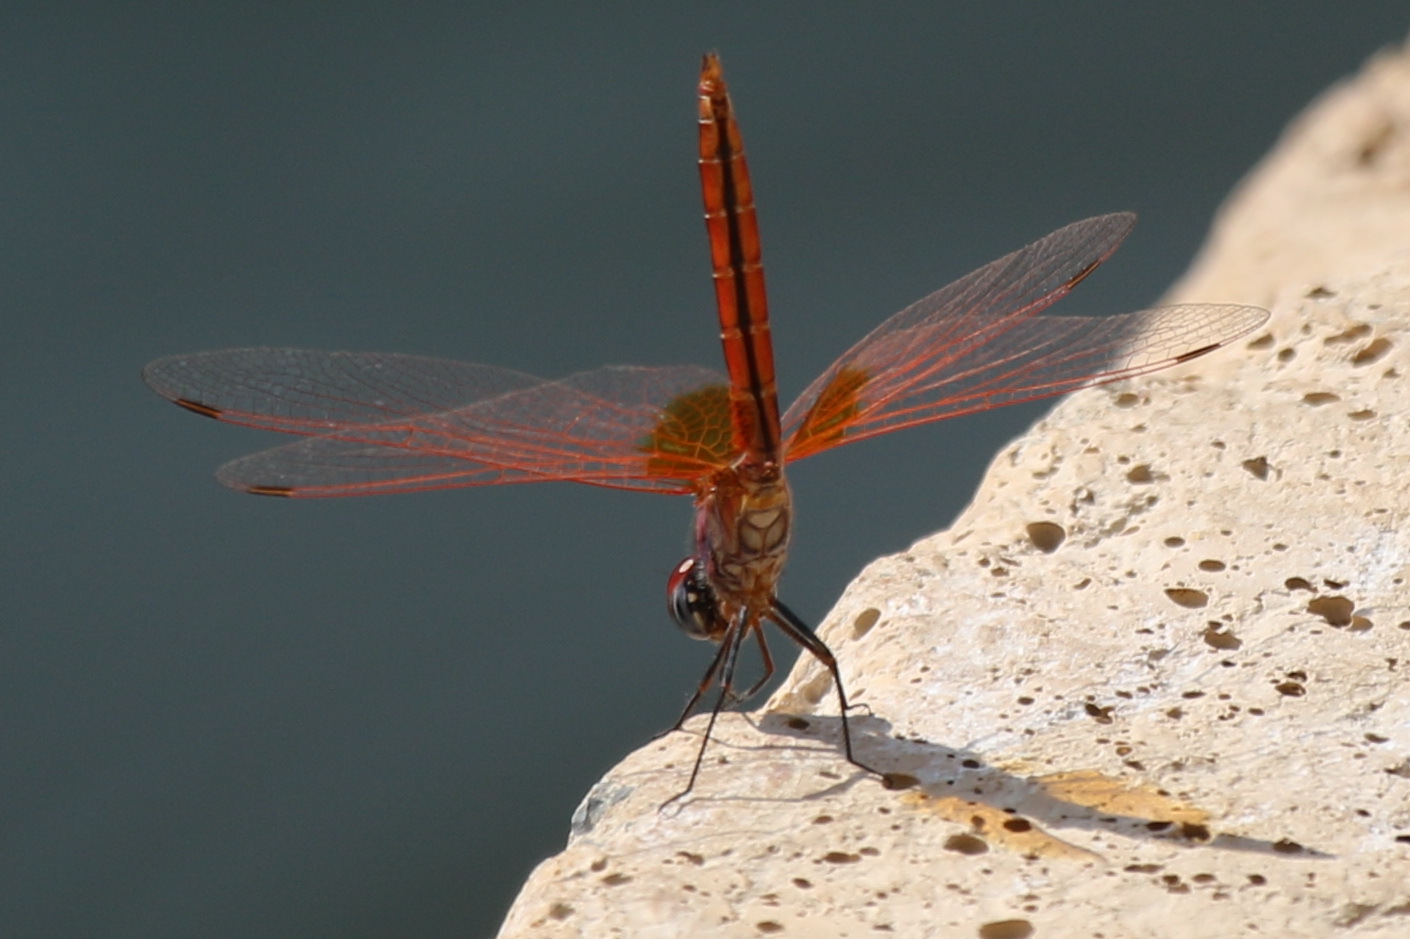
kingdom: Animalia
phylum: Arthropoda
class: Insecta
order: Odonata
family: Libellulidae
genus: Sympetrum
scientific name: Sympetrum fonscolombii
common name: Red-veined darter
